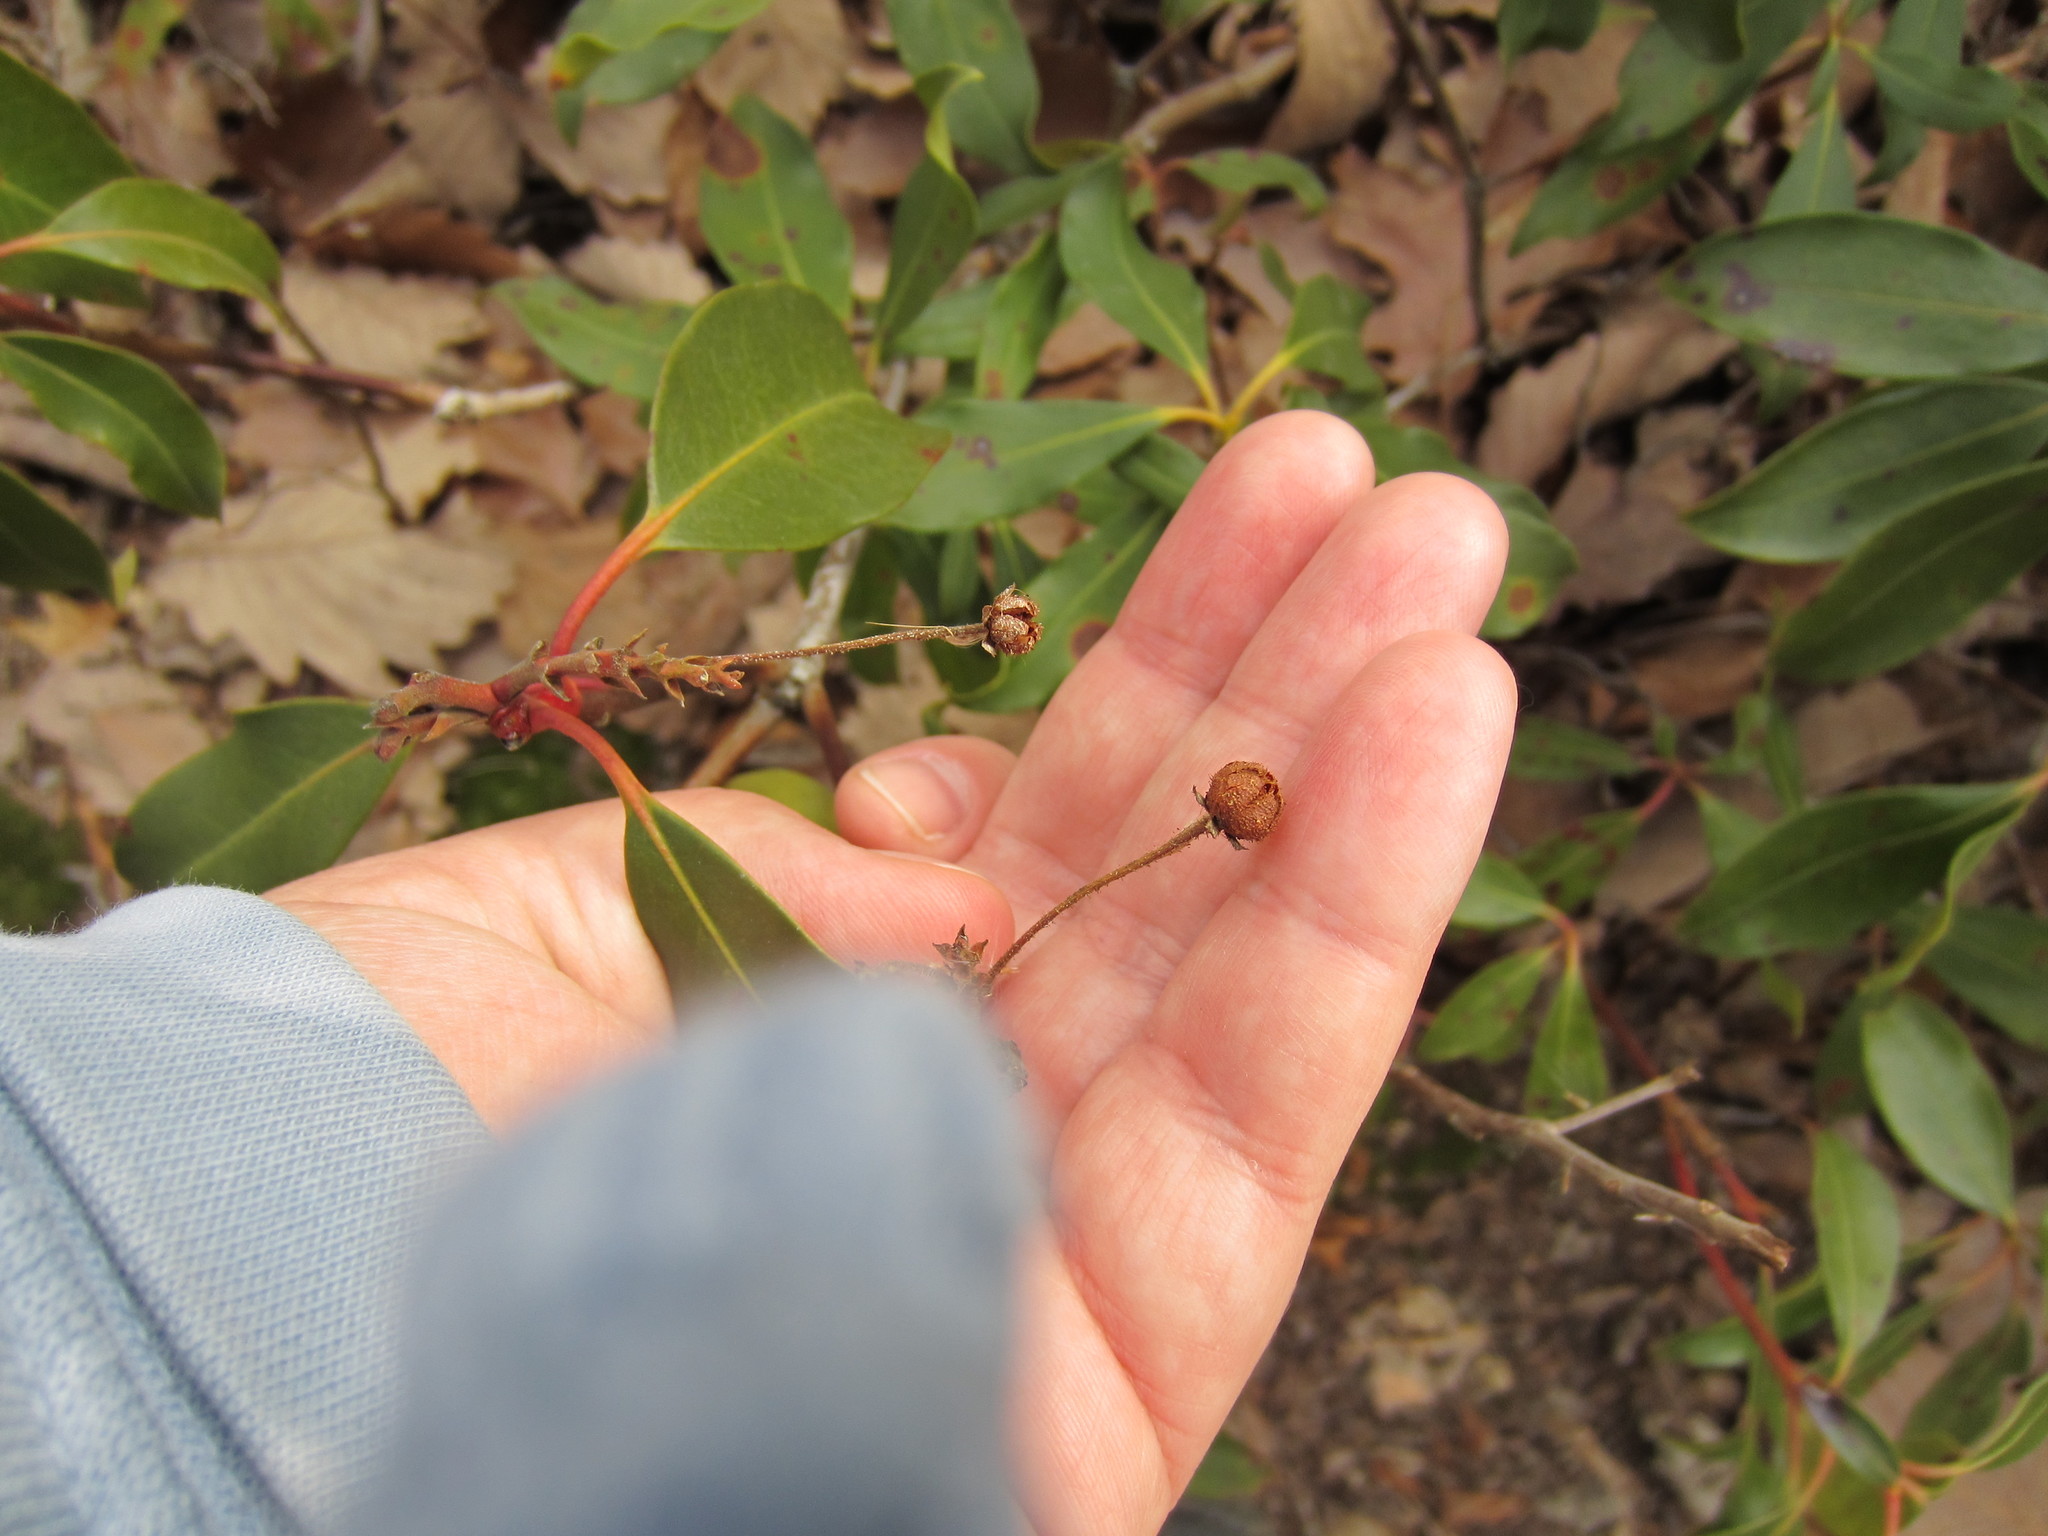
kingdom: Plantae
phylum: Tracheophyta
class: Magnoliopsida
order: Ericales
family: Ericaceae
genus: Kalmia
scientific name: Kalmia latifolia
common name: Mountain-laurel
